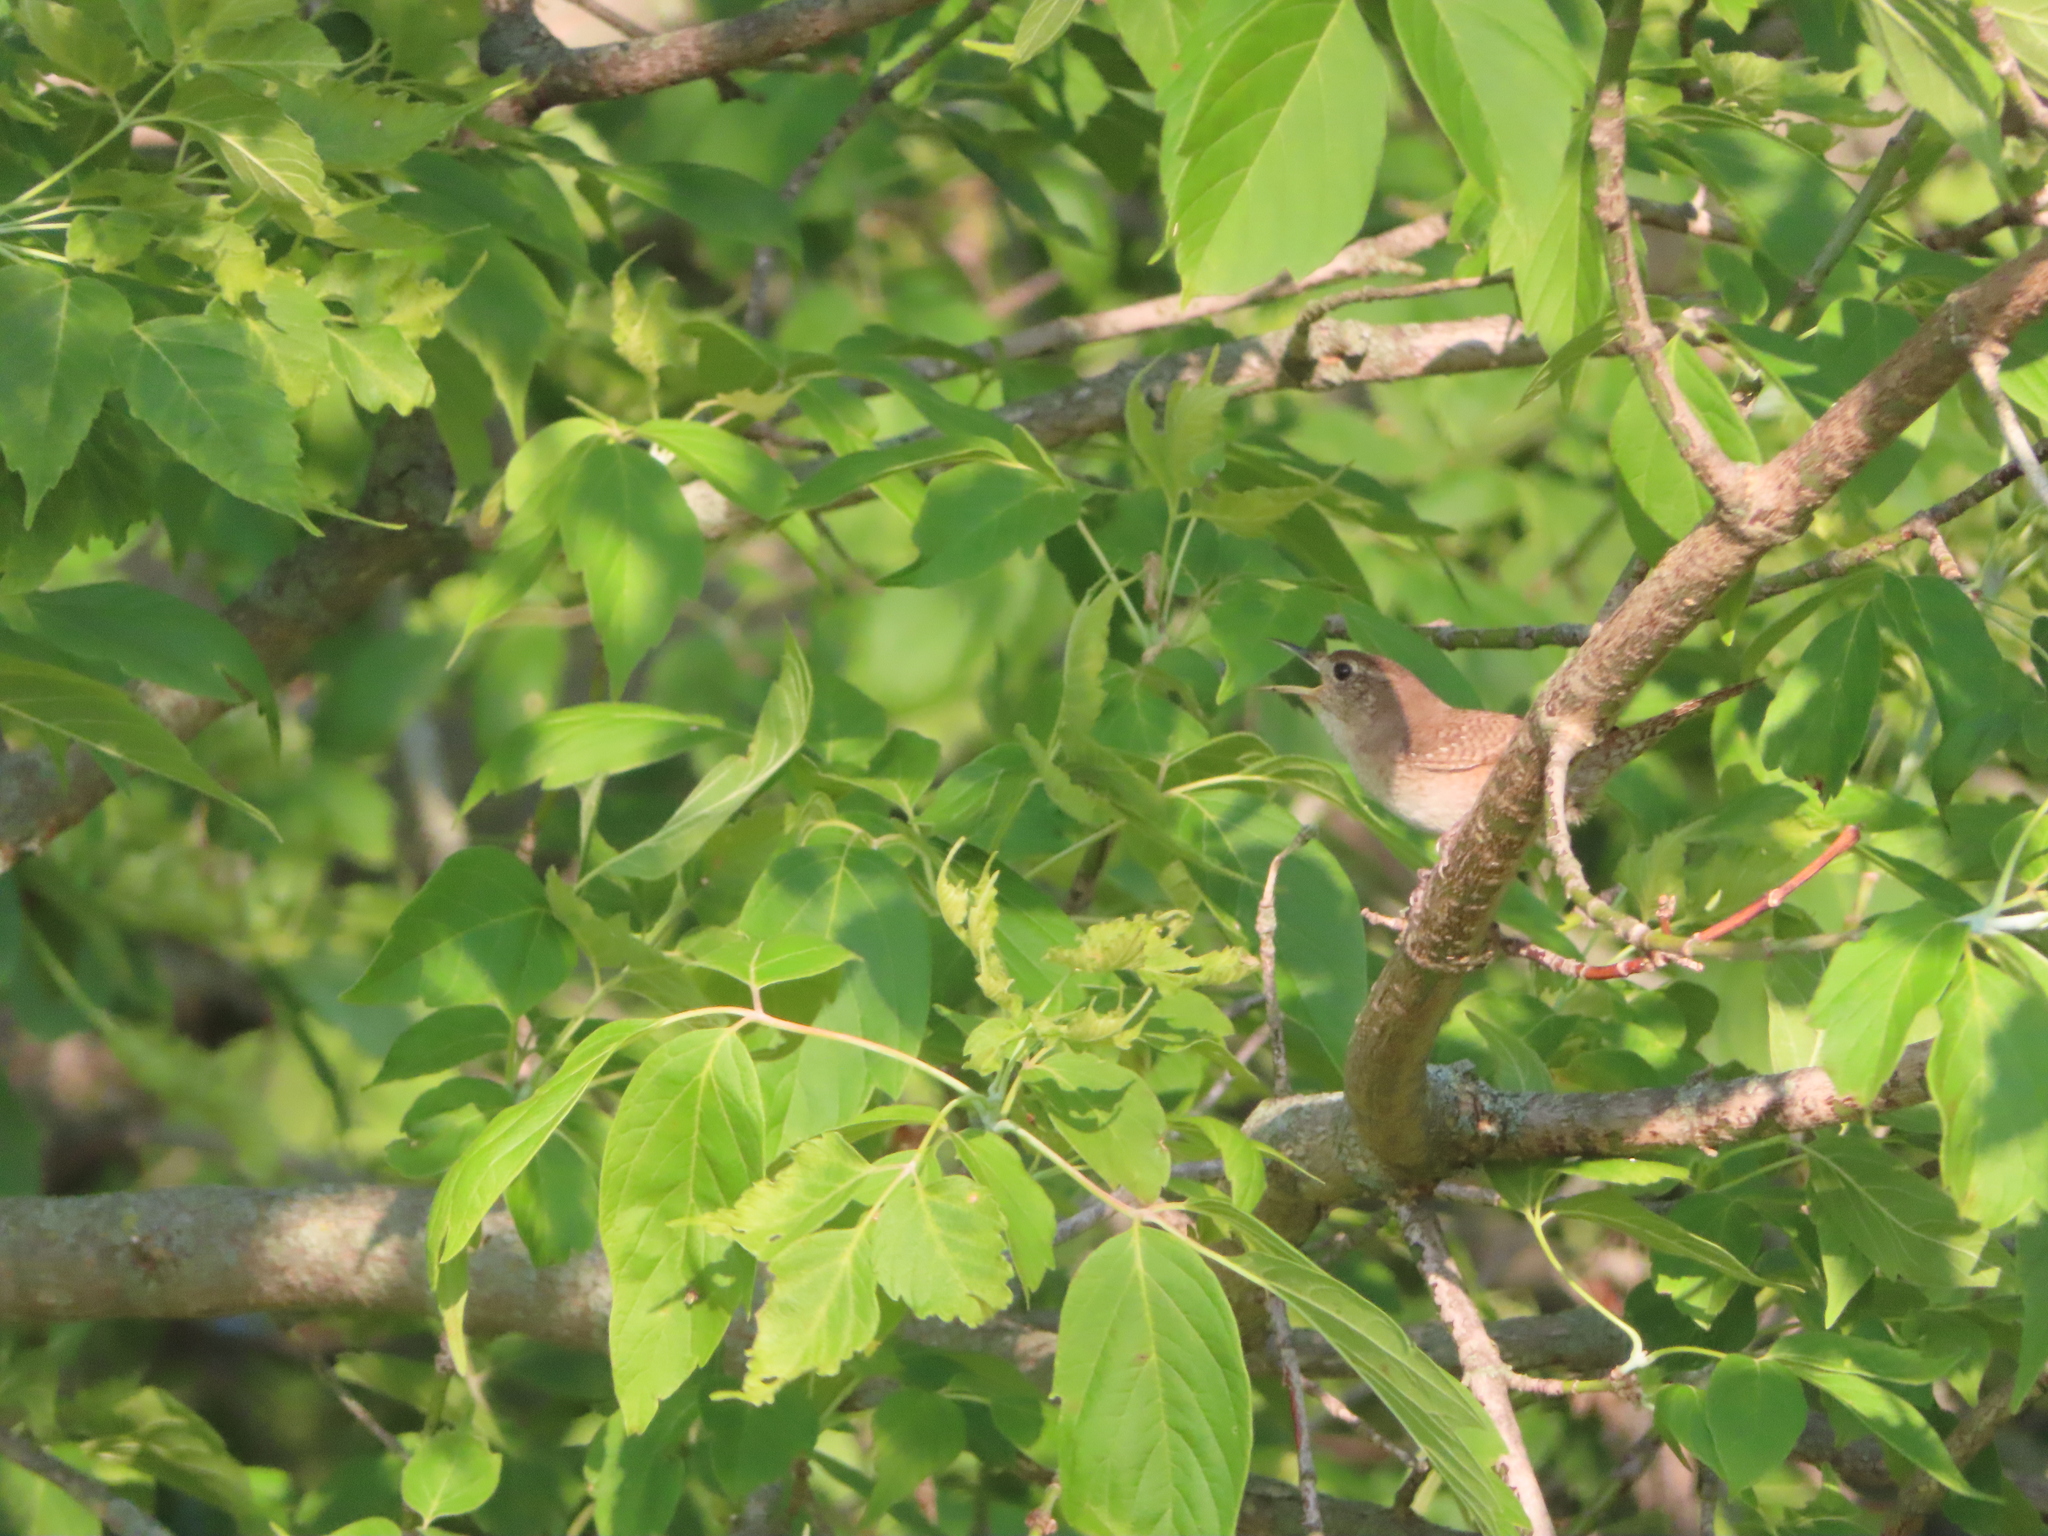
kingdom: Animalia
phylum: Chordata
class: Aves
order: Passeriformes
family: Troglodytidae
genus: Troglodytes
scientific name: Troglodytes aedon
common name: House wren
